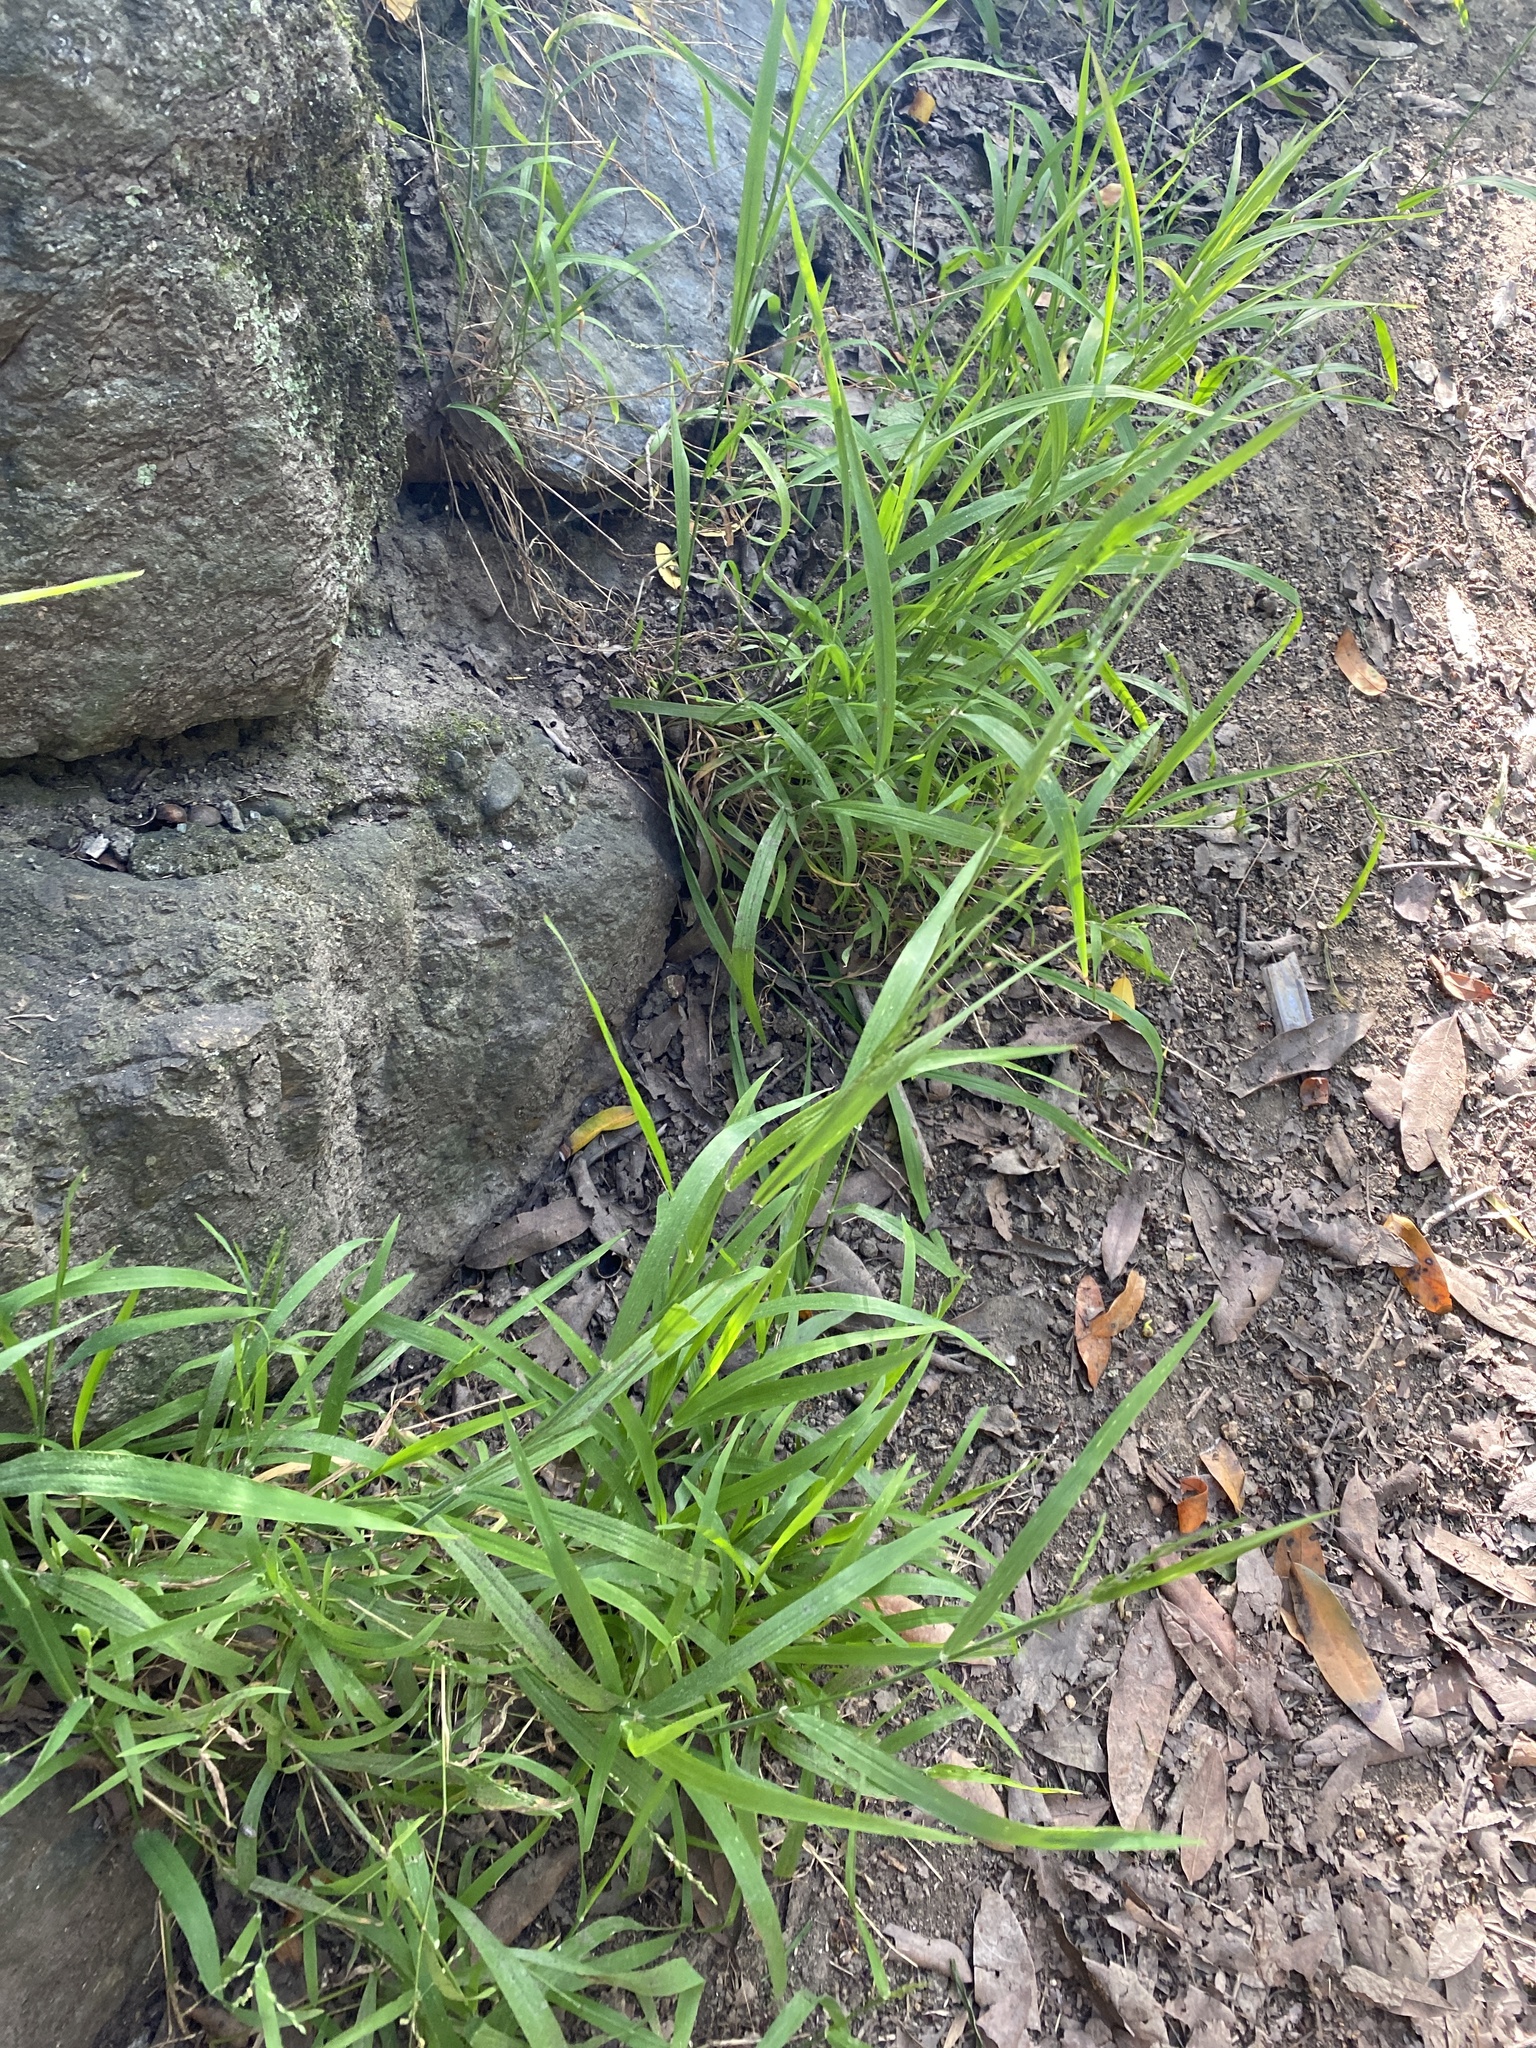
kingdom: Plantae
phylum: Tracheophyta
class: Liliopsida
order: Poales
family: Poaceae
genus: Ehrharta
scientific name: Ehrharta erecta
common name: Panic veldtgrass
